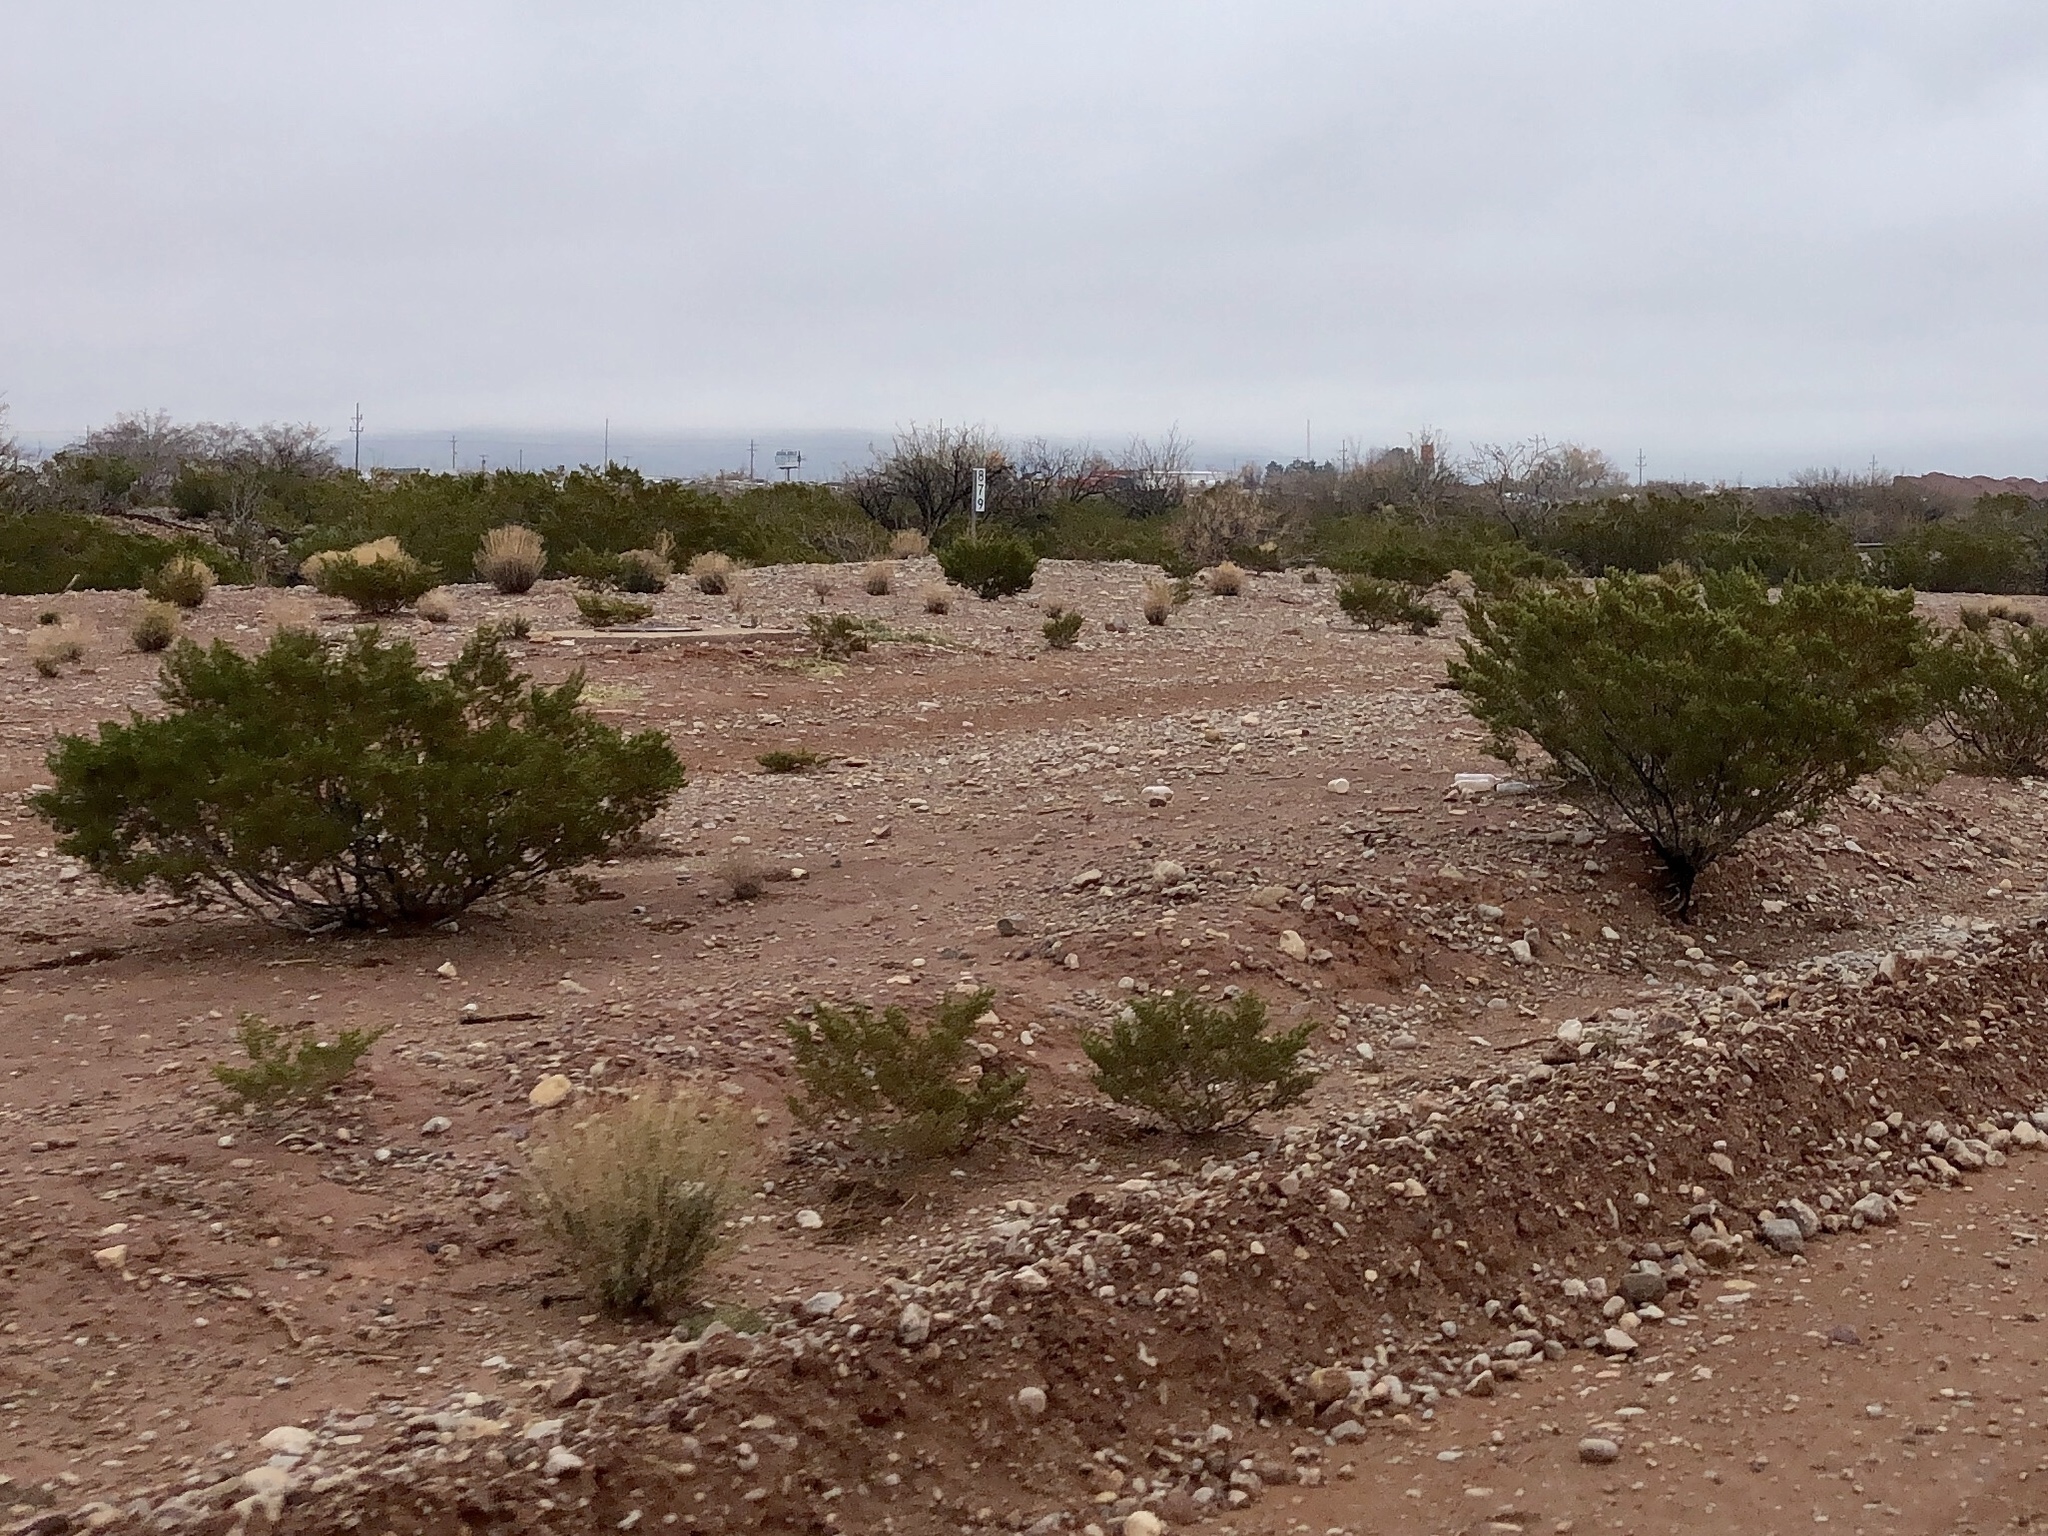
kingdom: Plantae
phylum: Tracheophyta
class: Magnoliopsida
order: Zygophyllales
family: Zygophyllaceae
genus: Larrea
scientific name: Larrea tridentata
